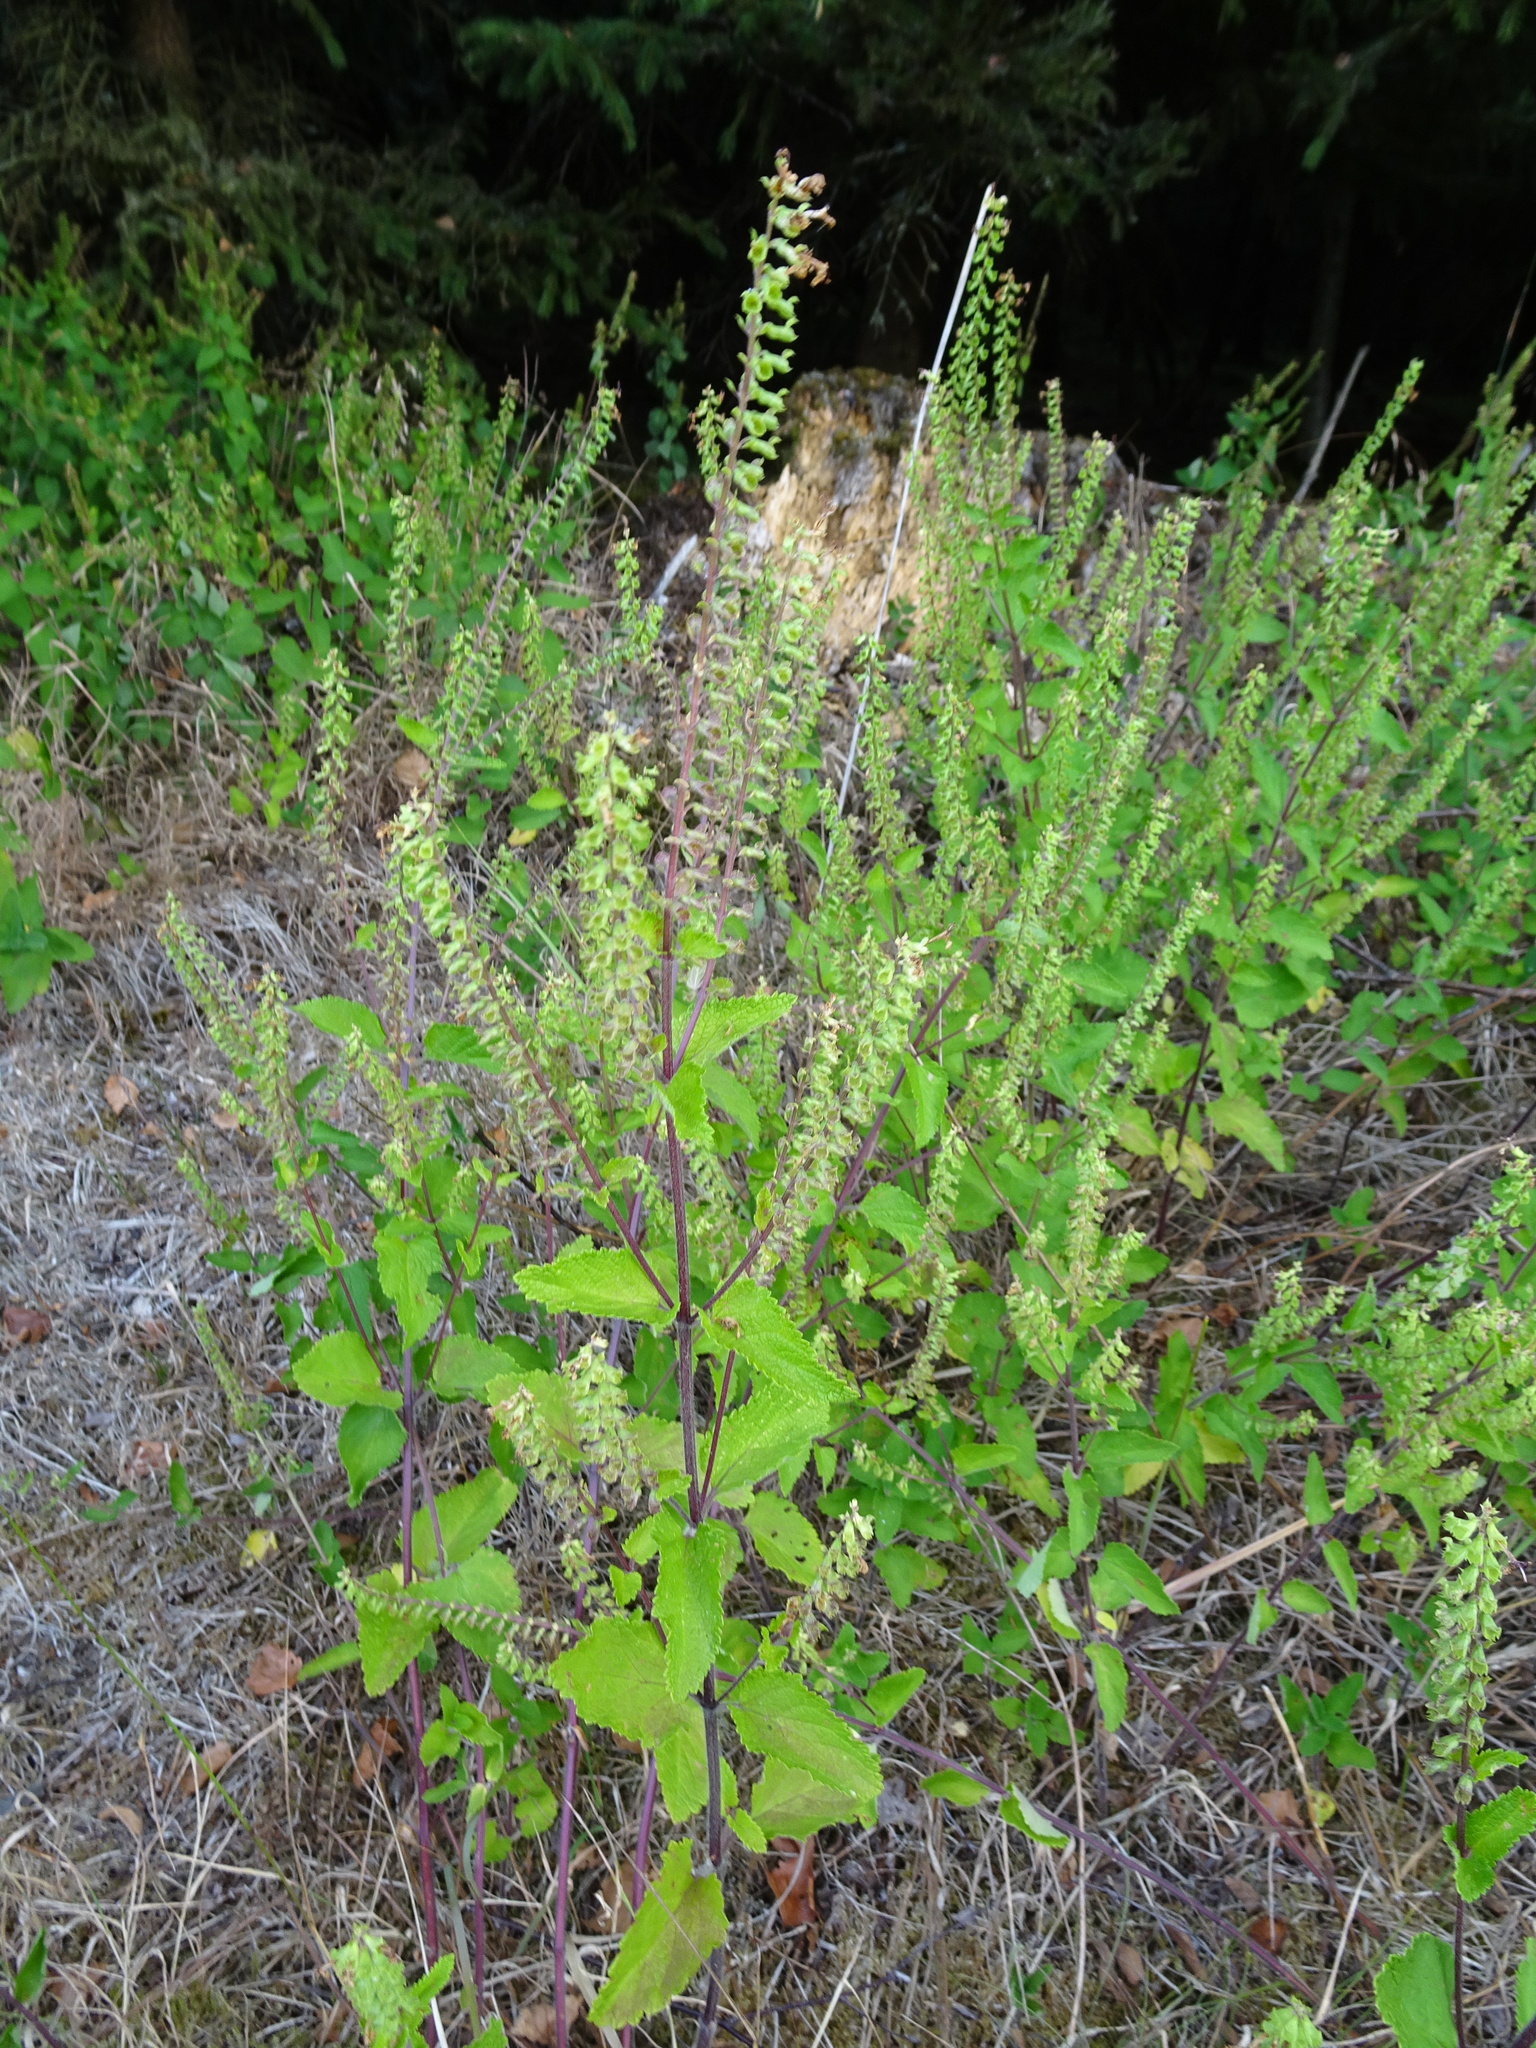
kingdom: Plantae
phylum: Tracheophyta
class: Magnoliopsida
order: Lamiales
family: Lamiaceae
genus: Teucrium
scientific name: Teucrium scorodonia
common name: Woodland germander
